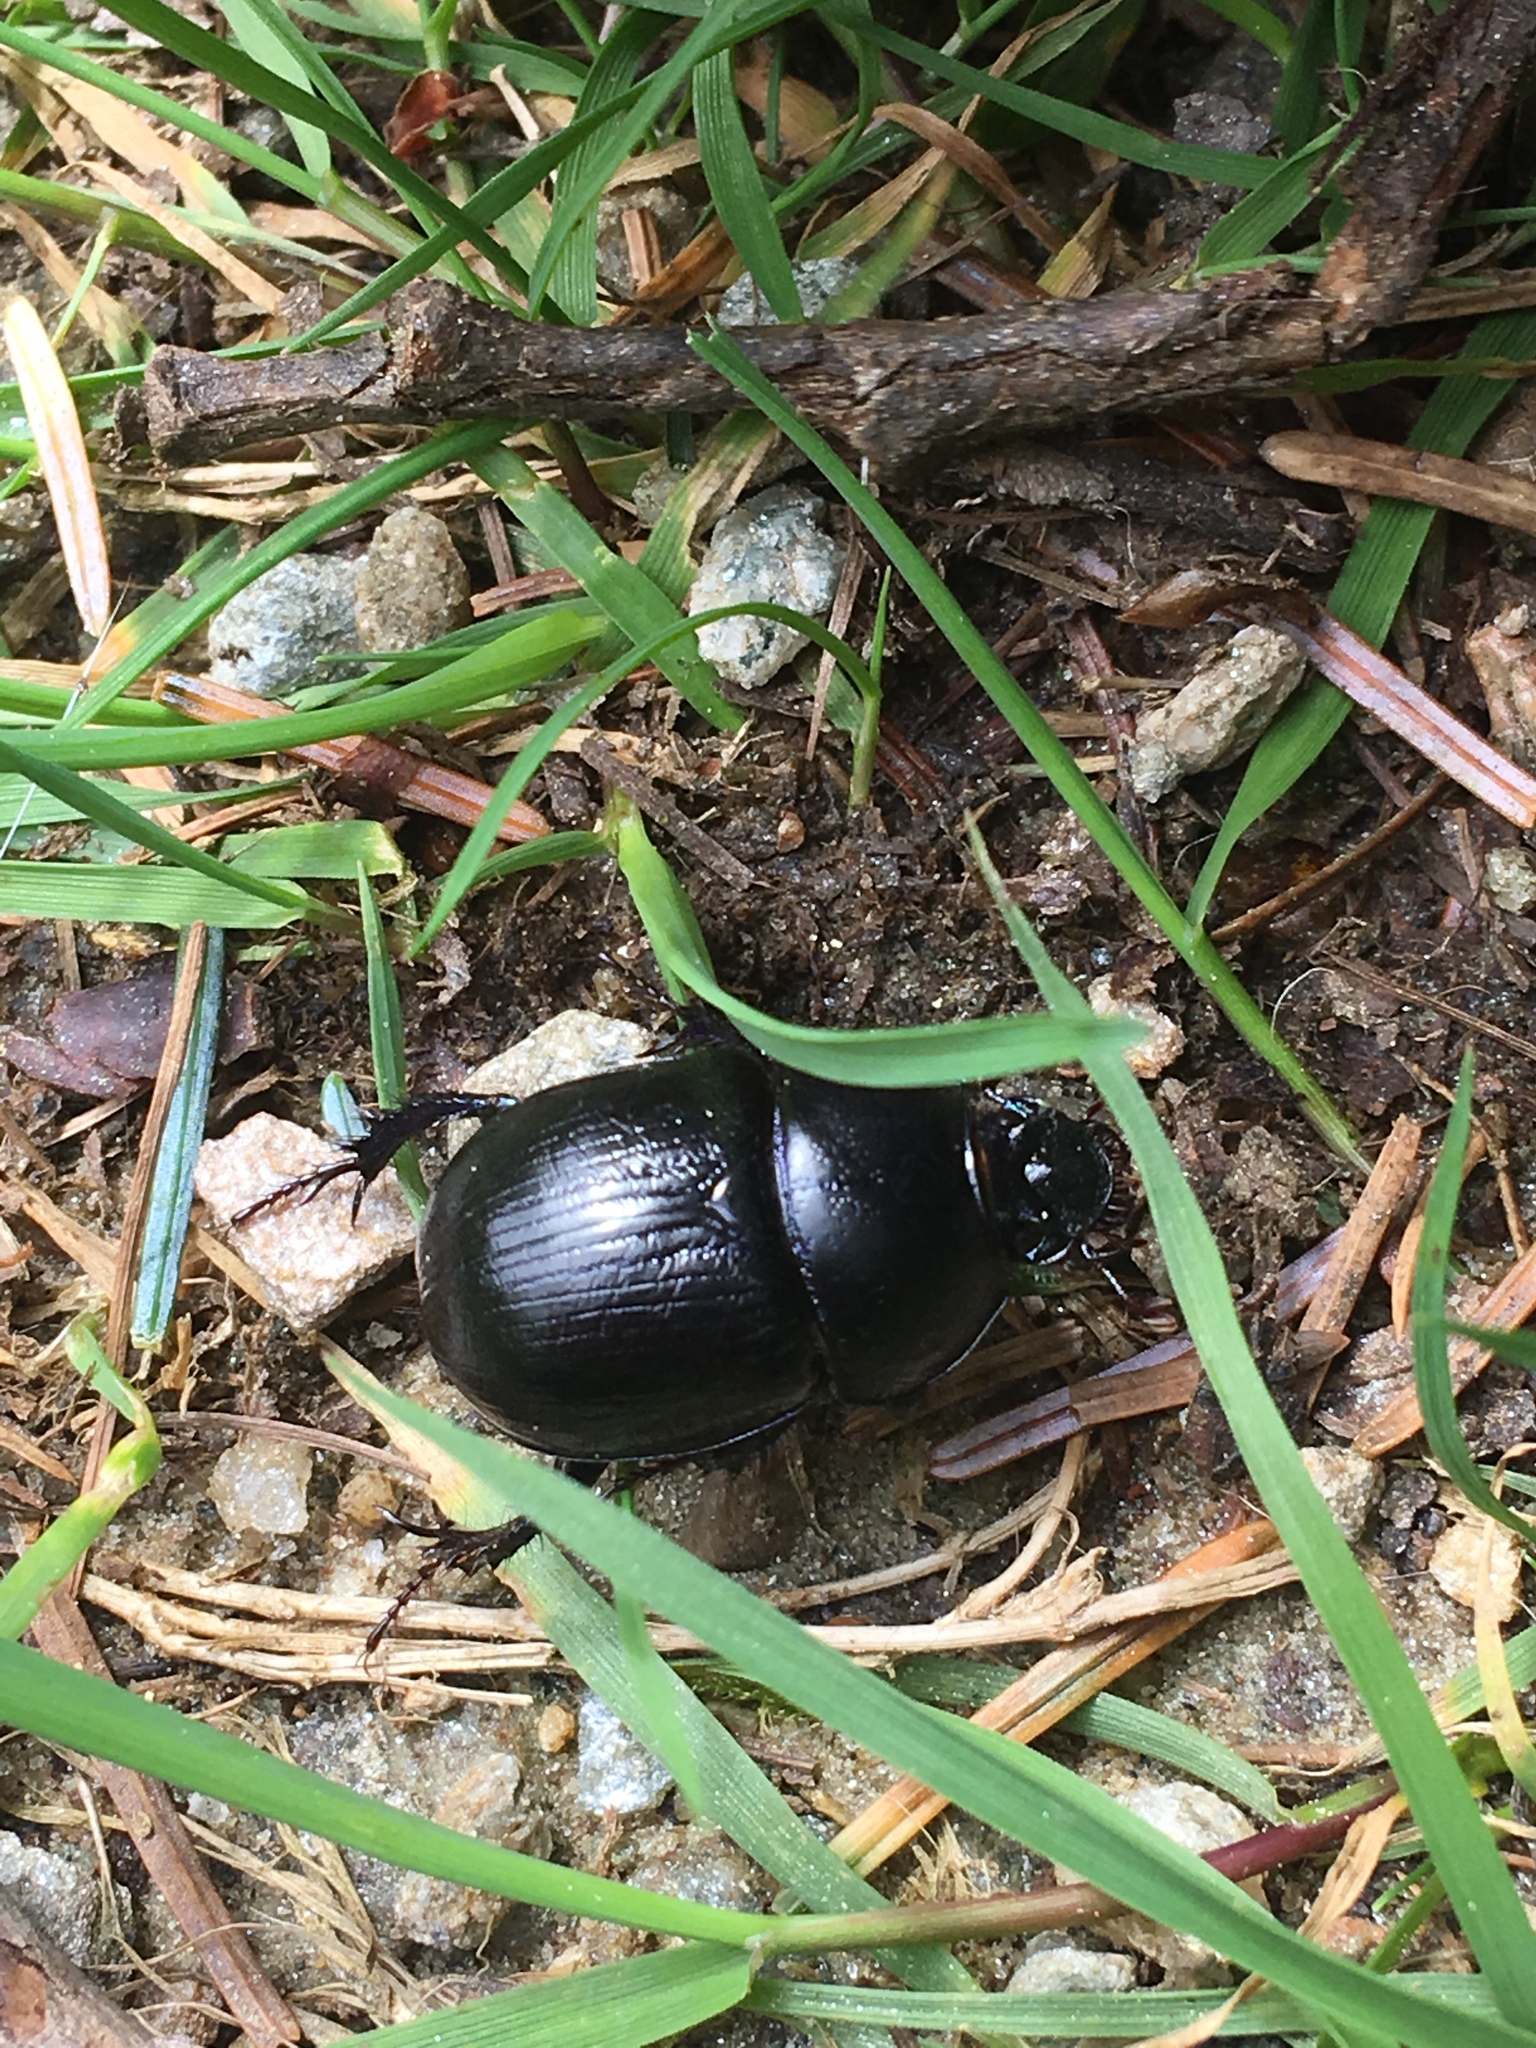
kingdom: Animalia
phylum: Arthropoda
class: Insecta
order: Coleoptera
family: Geotrupidae
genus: Anoplotrupes
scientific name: Anoplotrupes stercorosus
